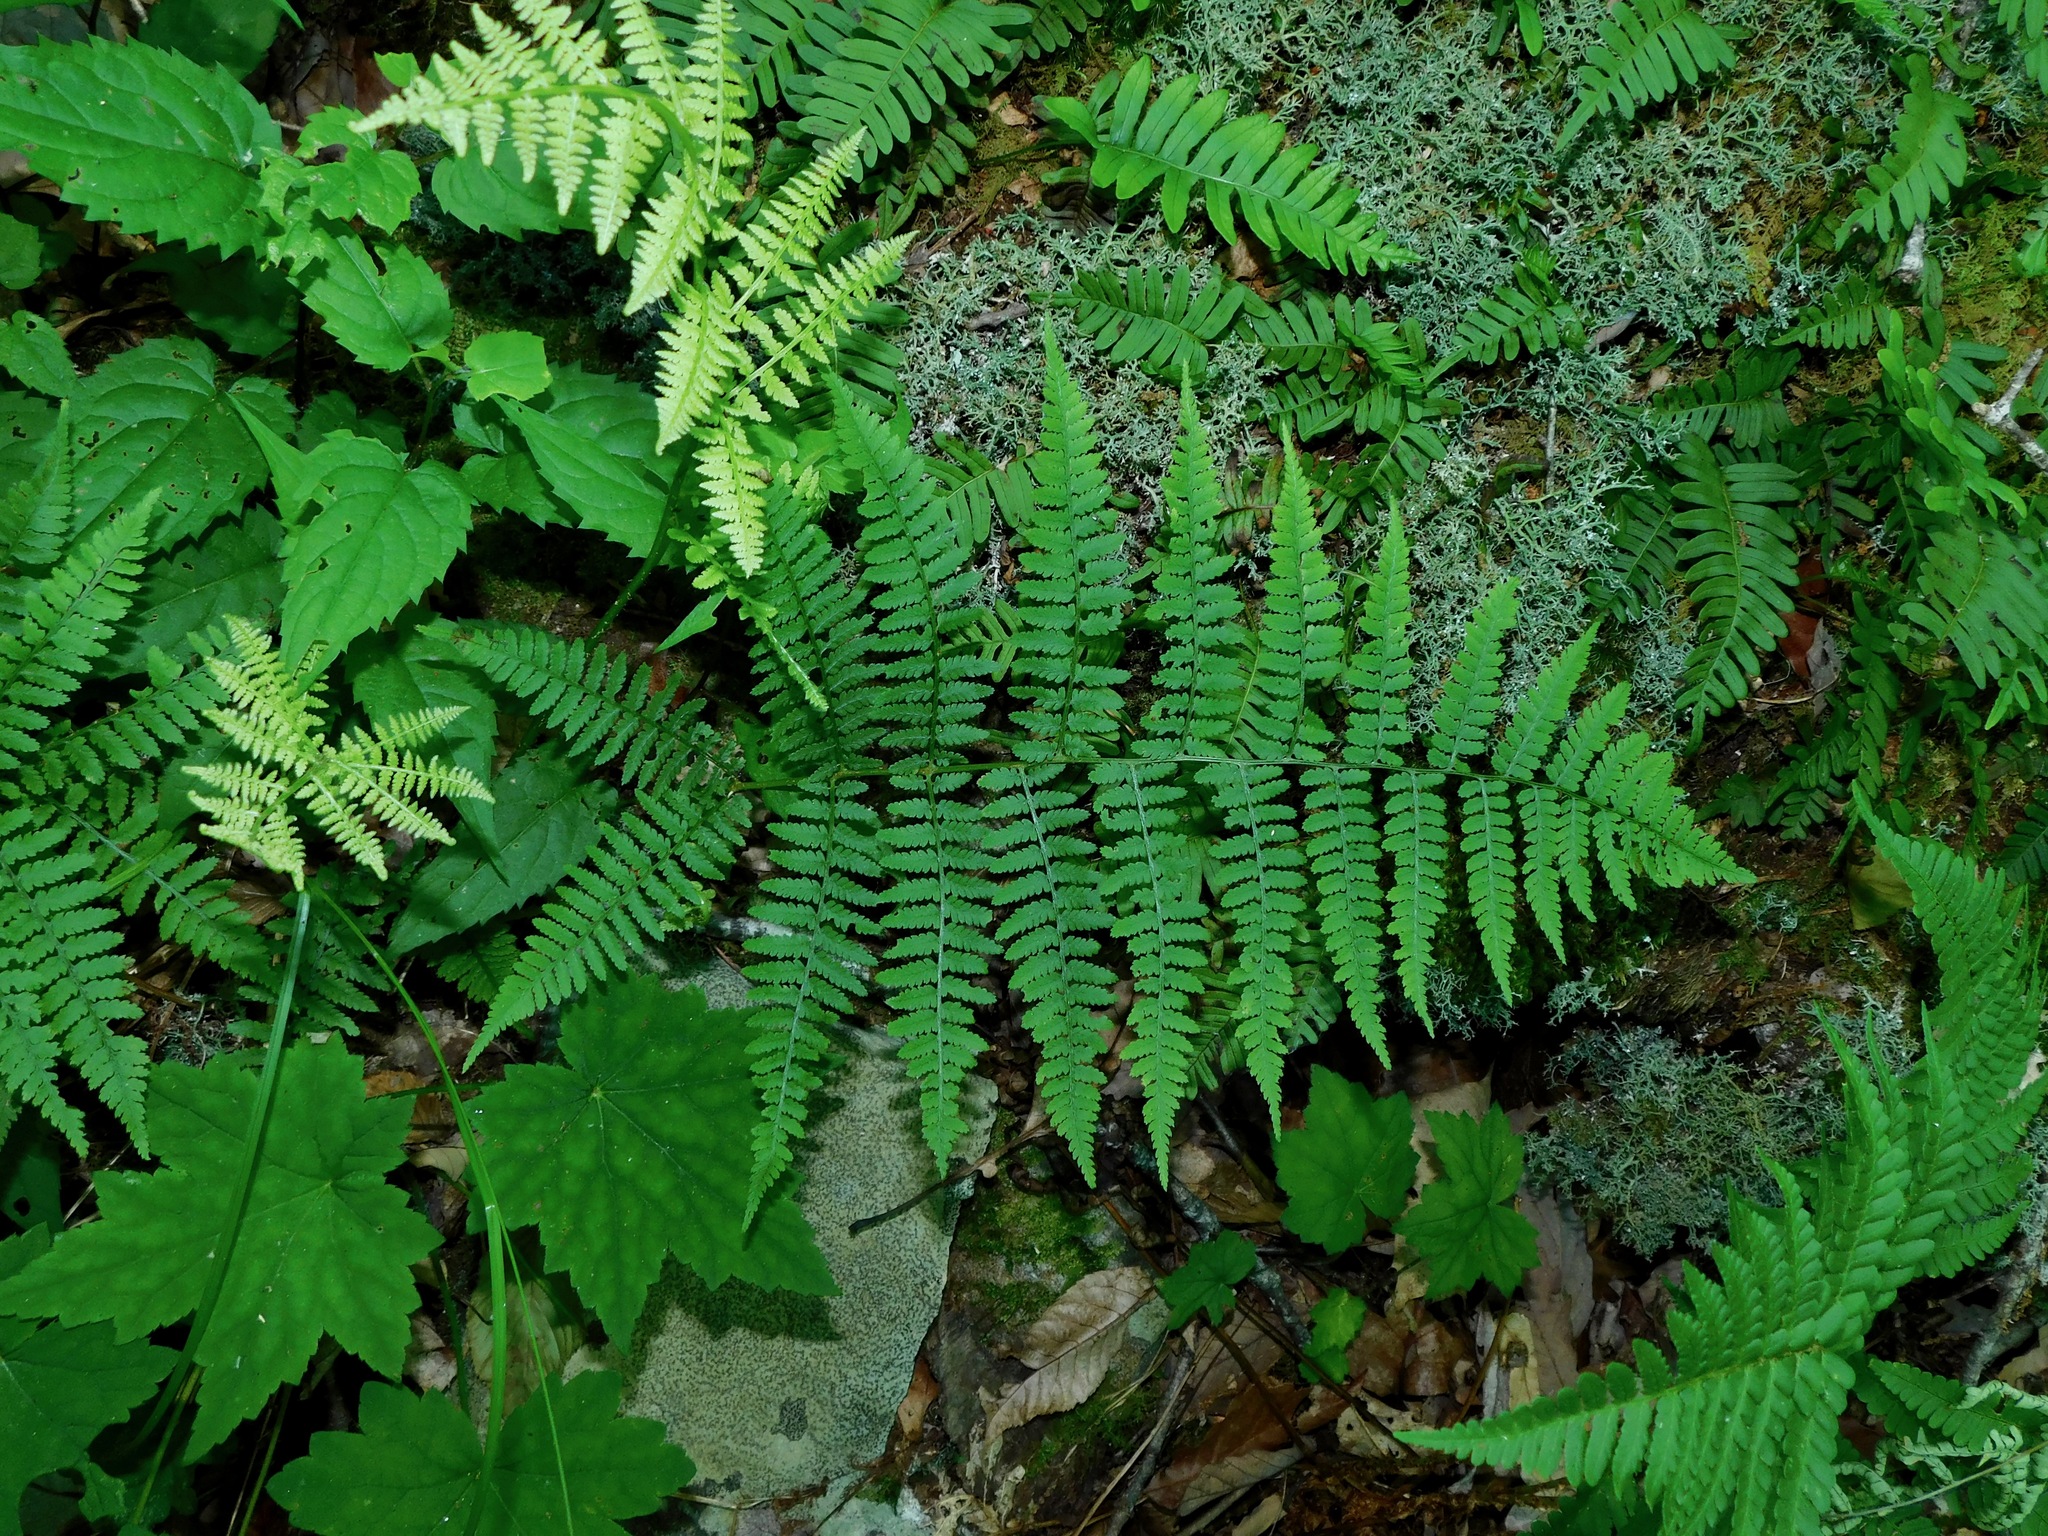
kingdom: Plantae
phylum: Tracheophyta
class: Polypodiopsida
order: Polypodiales
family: Athyriaceae
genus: Athyrium
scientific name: Athyrium asplenioides
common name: Southern lady fern
